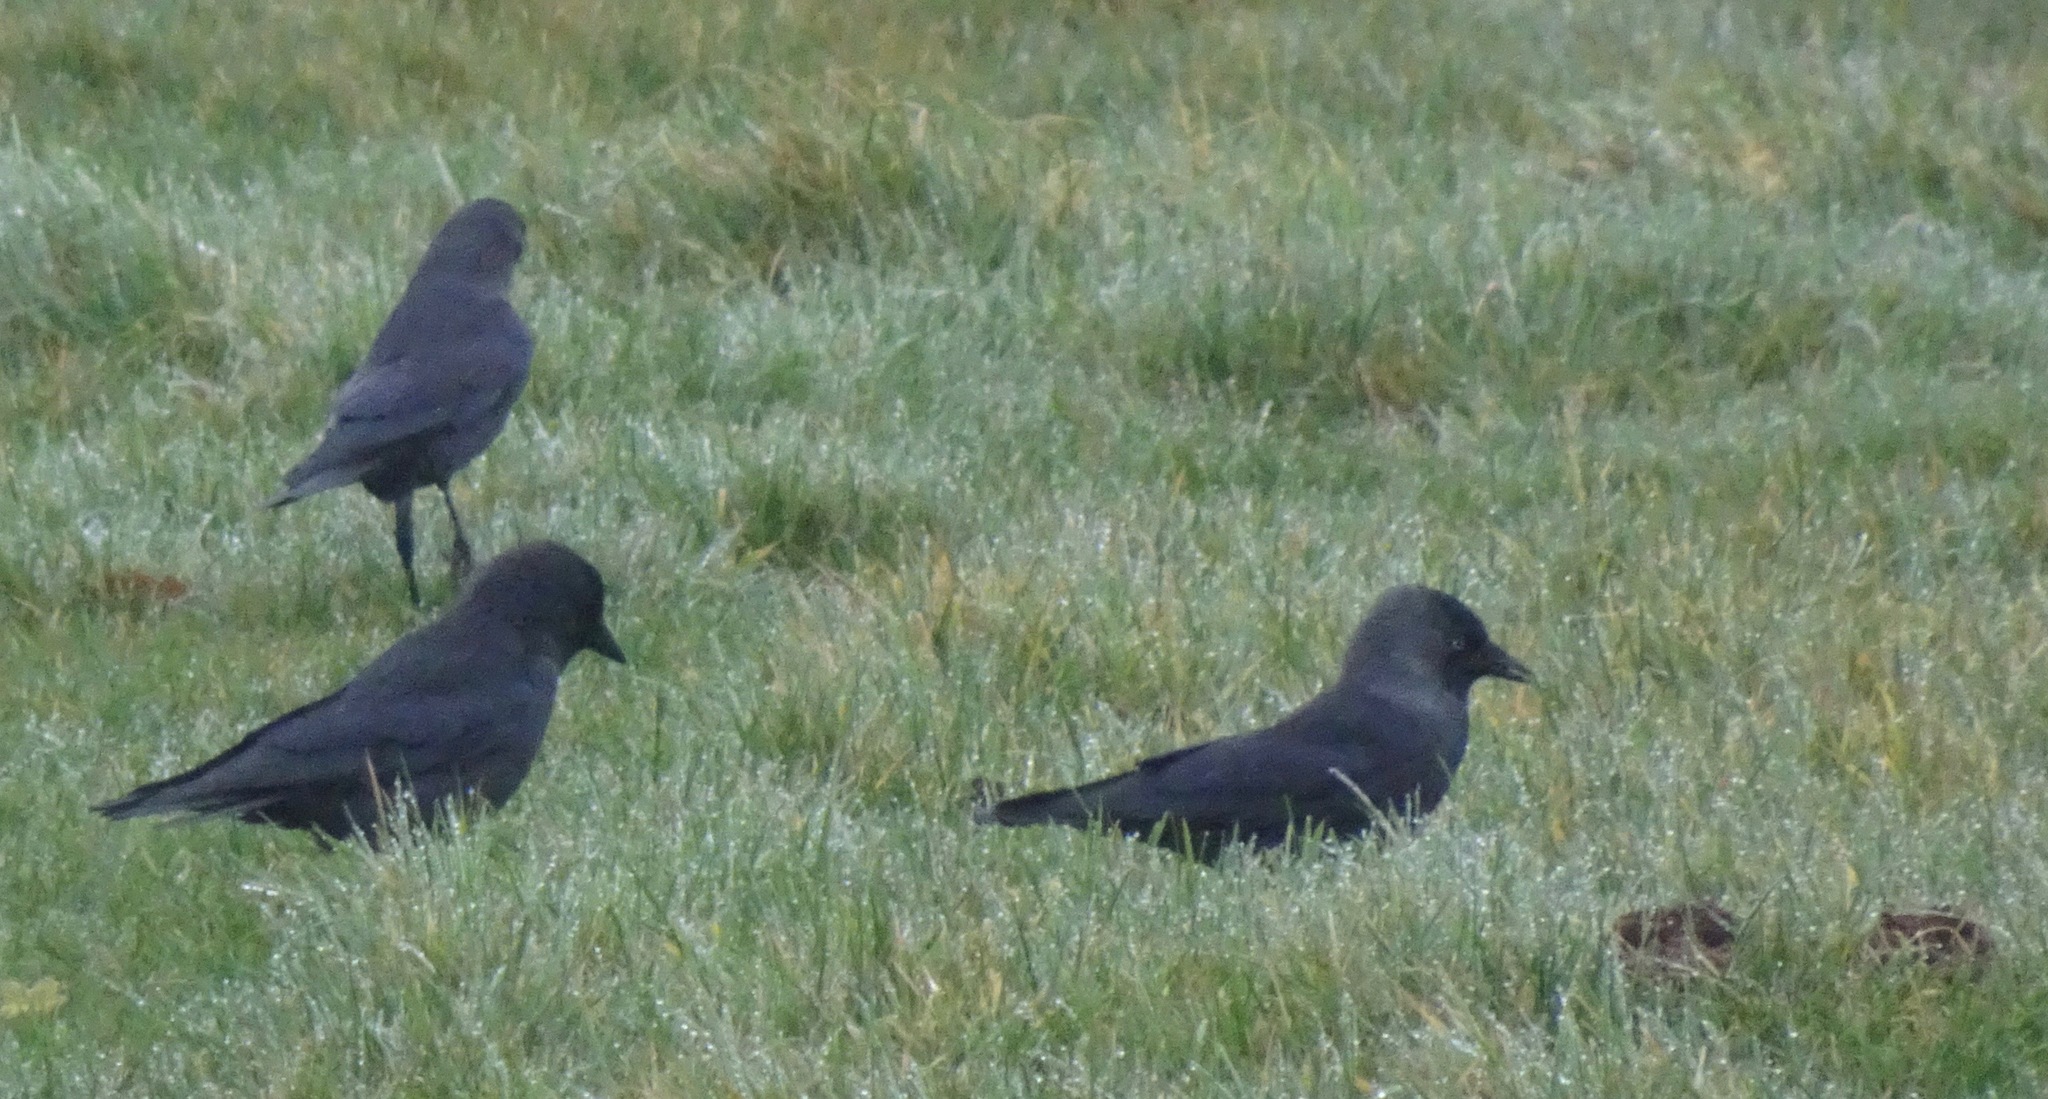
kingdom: Animalia
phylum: Chordata
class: Aves
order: Passeriformes
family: Corvidae
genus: Coloeus
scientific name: Coloeus monedula
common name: Western jackdaw
